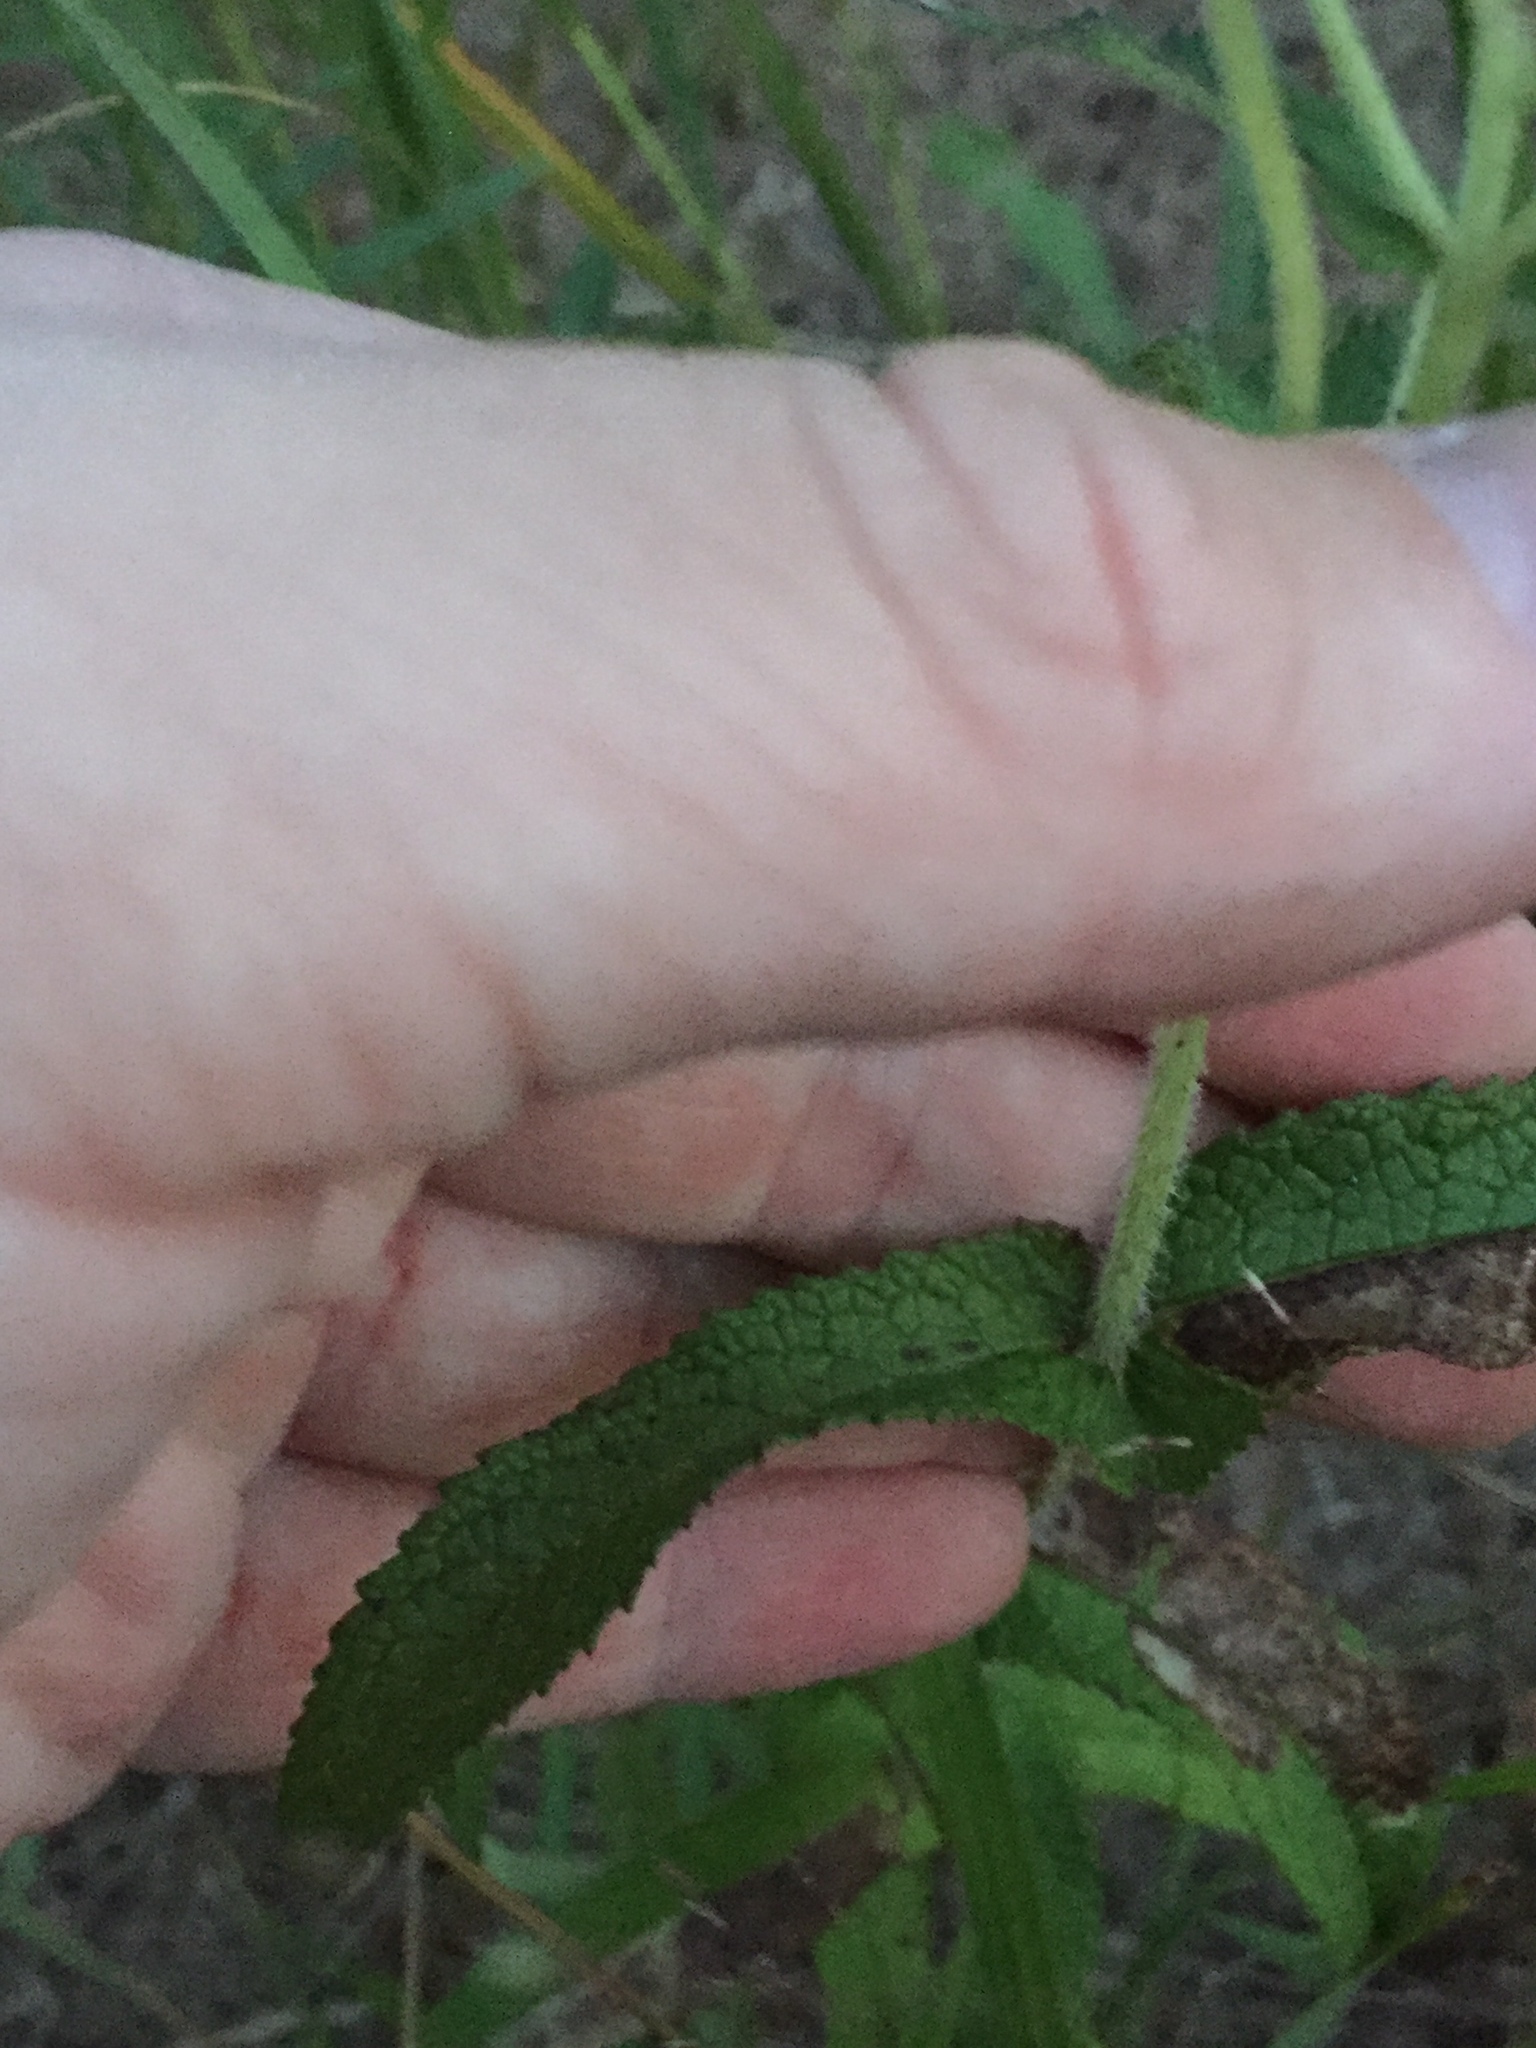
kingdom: Plantae
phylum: Tracheophyta
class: Magnoliopsida
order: Asterales
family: Asteraceae
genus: Eupatorium
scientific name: Eupatorium perfoliatum
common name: Boneset
